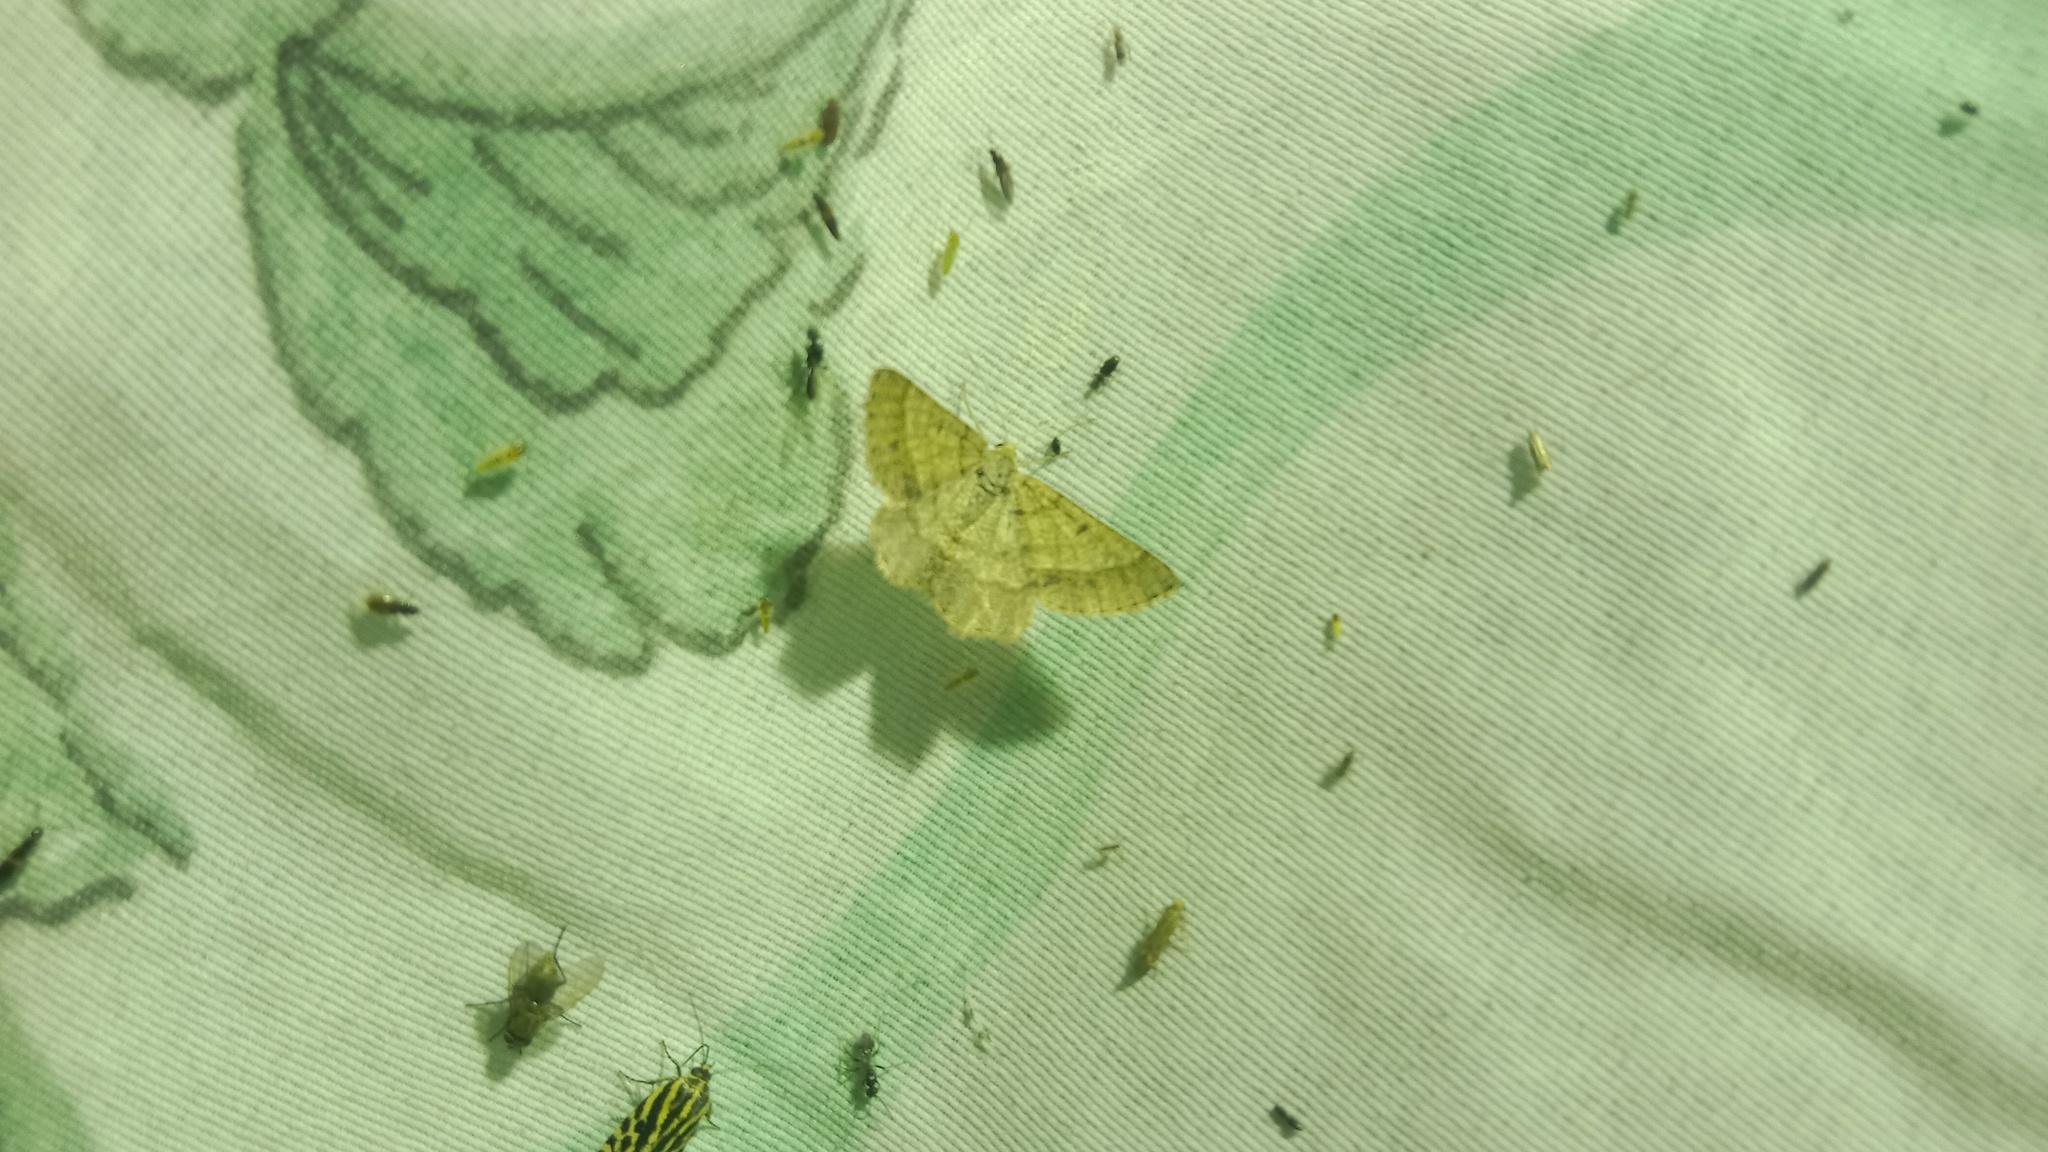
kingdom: Animalia
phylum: Arthropoda
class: Insecta
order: Lepidoptera
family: Geometridae
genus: Tephrina
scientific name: Tephrina murinaria
